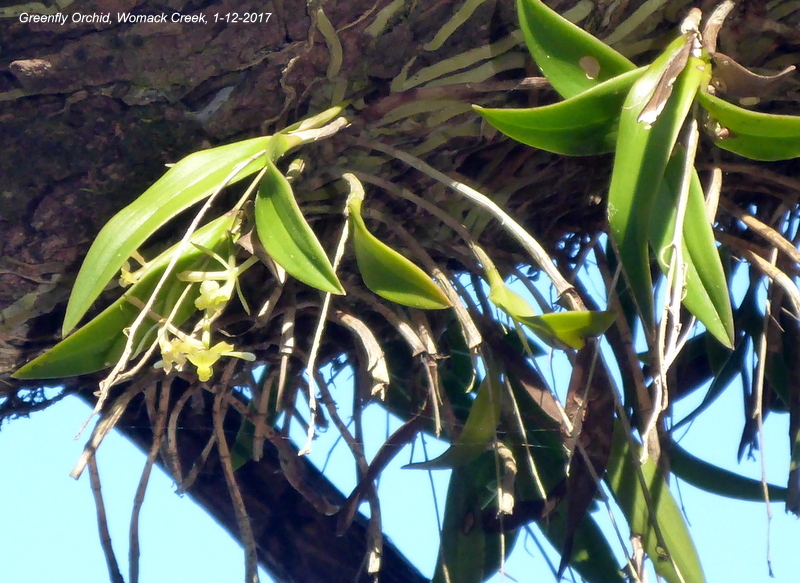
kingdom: Plantae
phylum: Tracheophyta
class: Liliopsida
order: Asparagales
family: Orchidaceae
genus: Epidendrum
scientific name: Epidendrum conopseum
